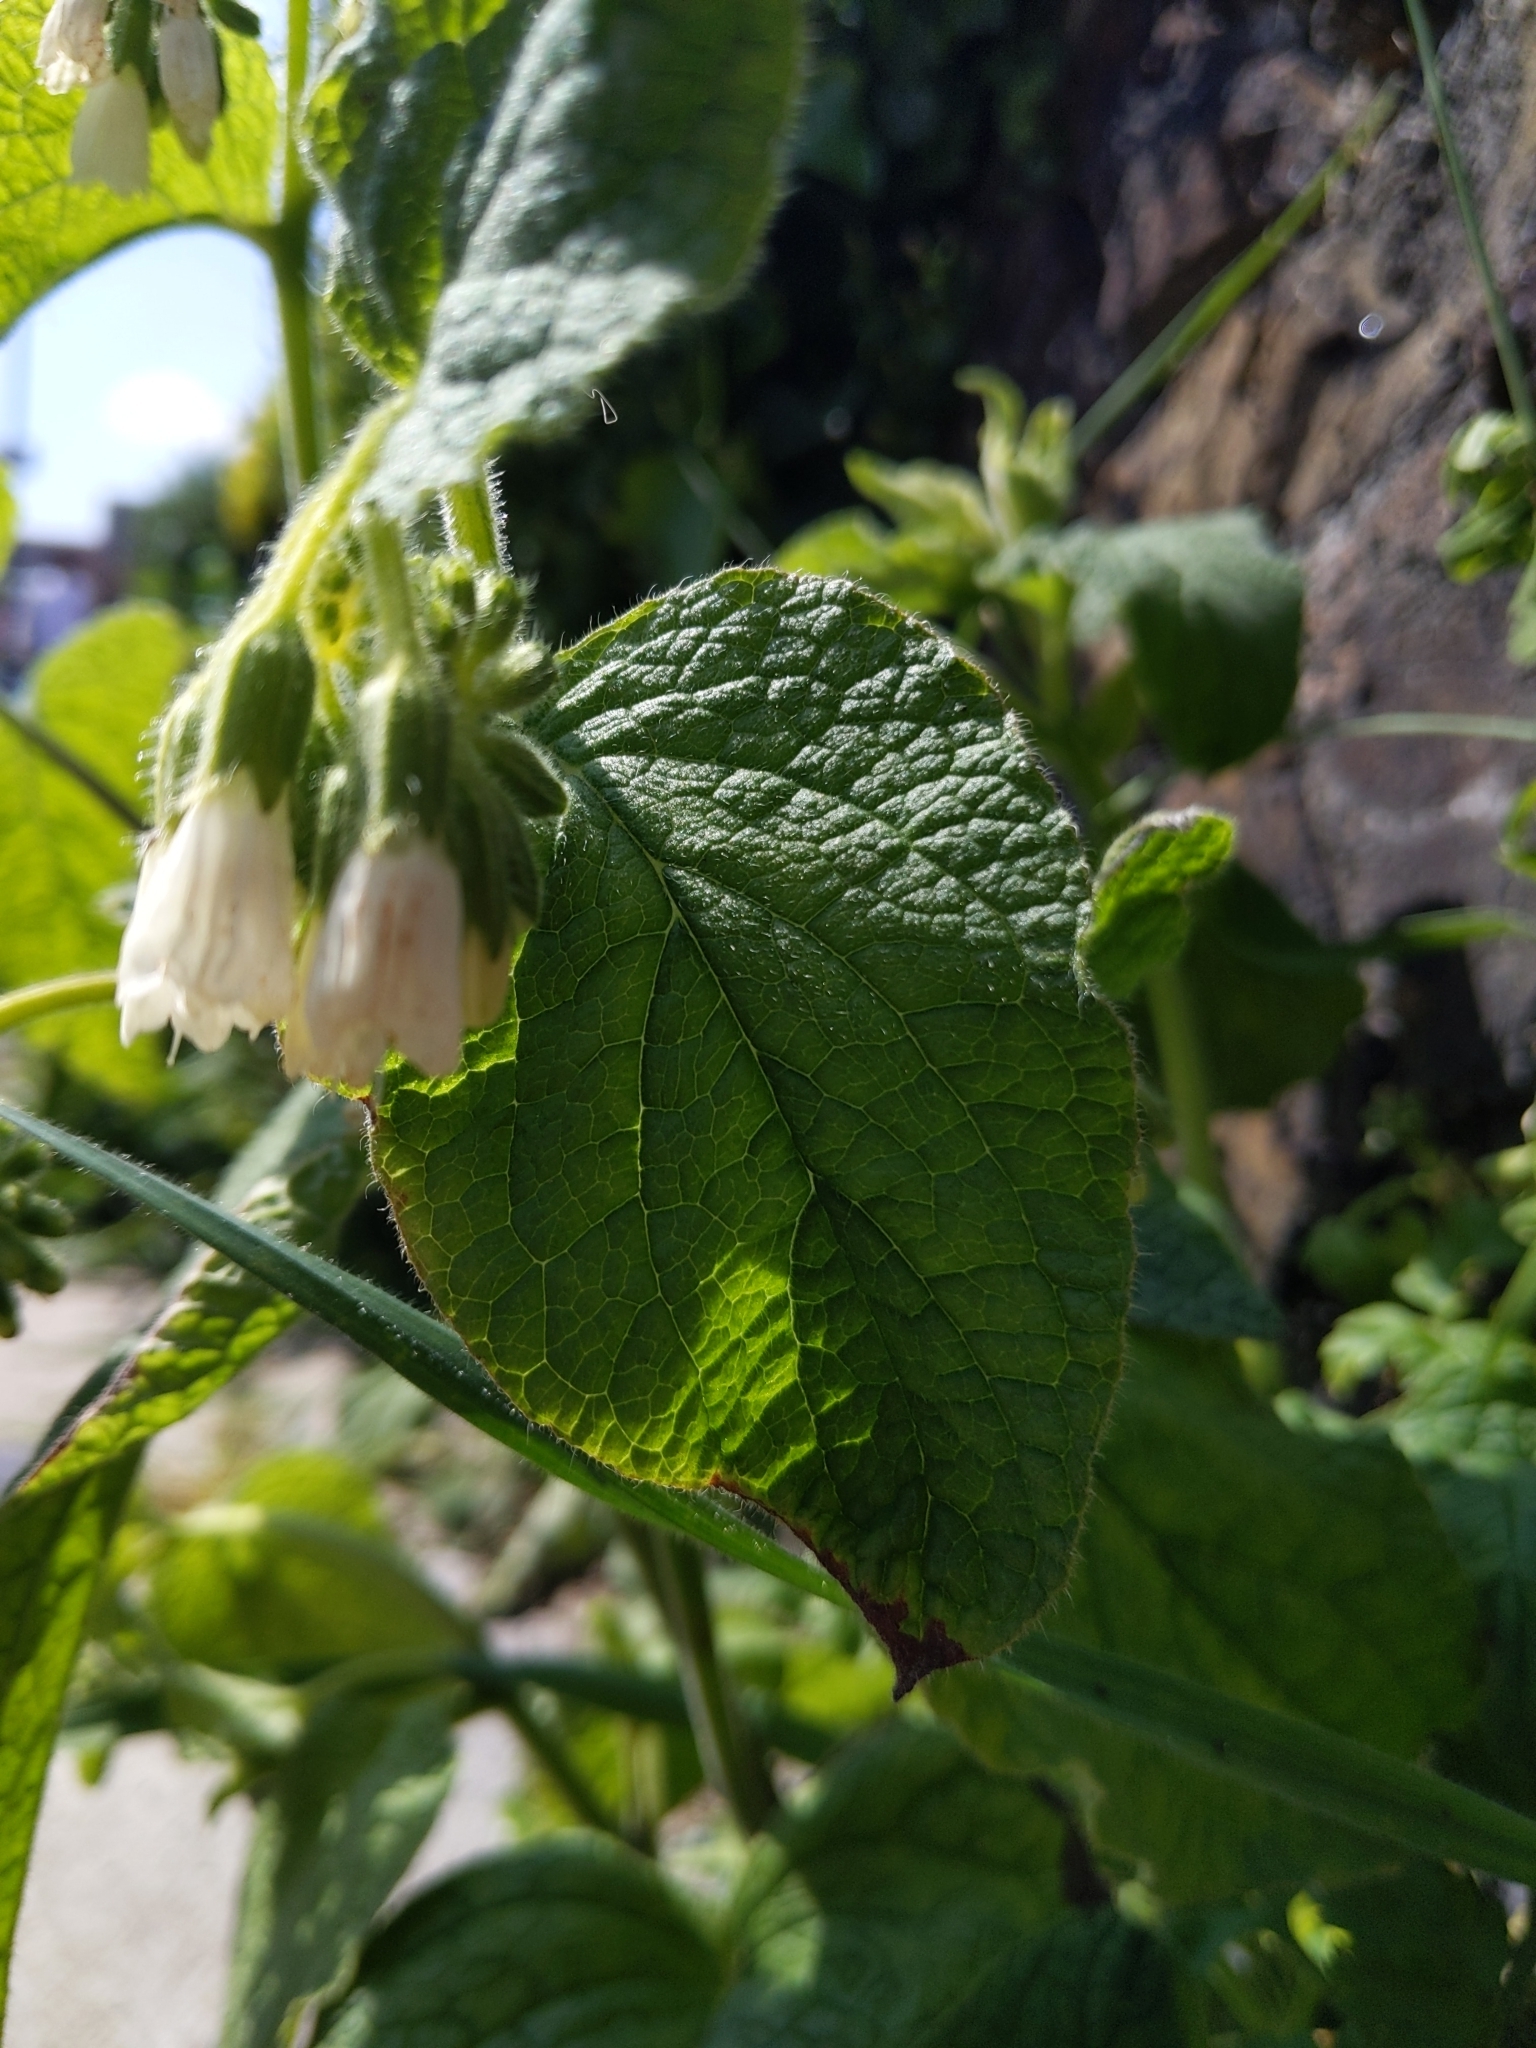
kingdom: Plantae
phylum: Tracheophyta
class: Magnoliopsida
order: Boraginales
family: Boraginaceae
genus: Symphytum
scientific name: Symphytum orientale
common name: White comfrey
